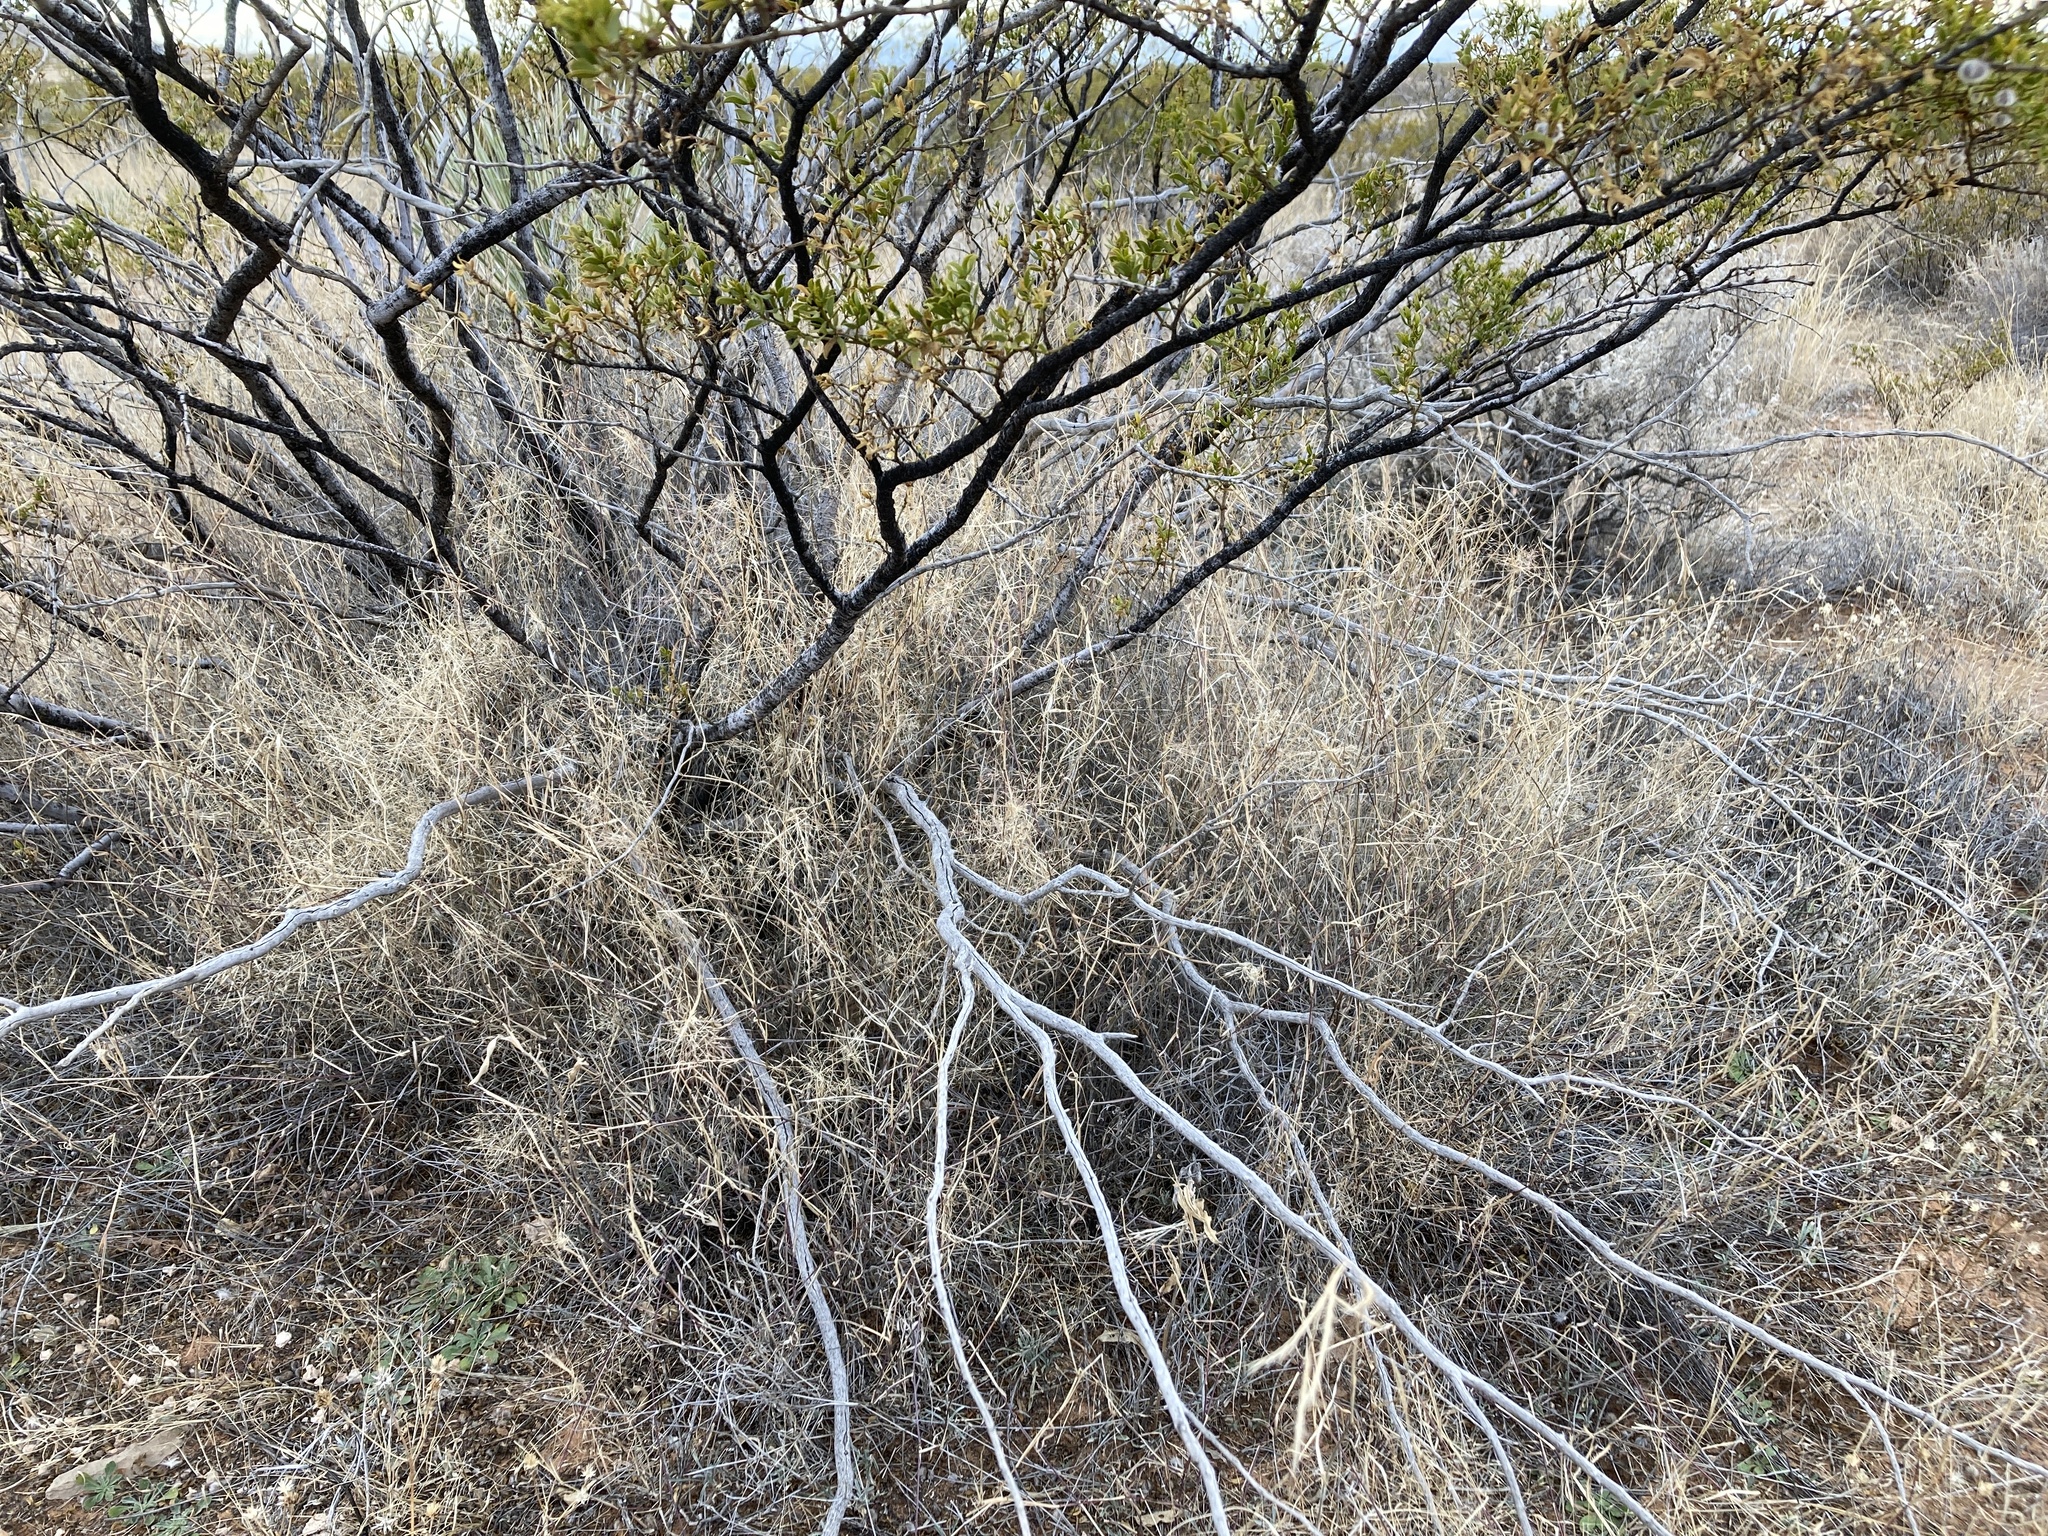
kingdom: Plantae
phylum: Tracheophyta
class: Liliopsida
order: Poales
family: Poaceae
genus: Muhlenbergia
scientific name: Muhlenbergia porteri
